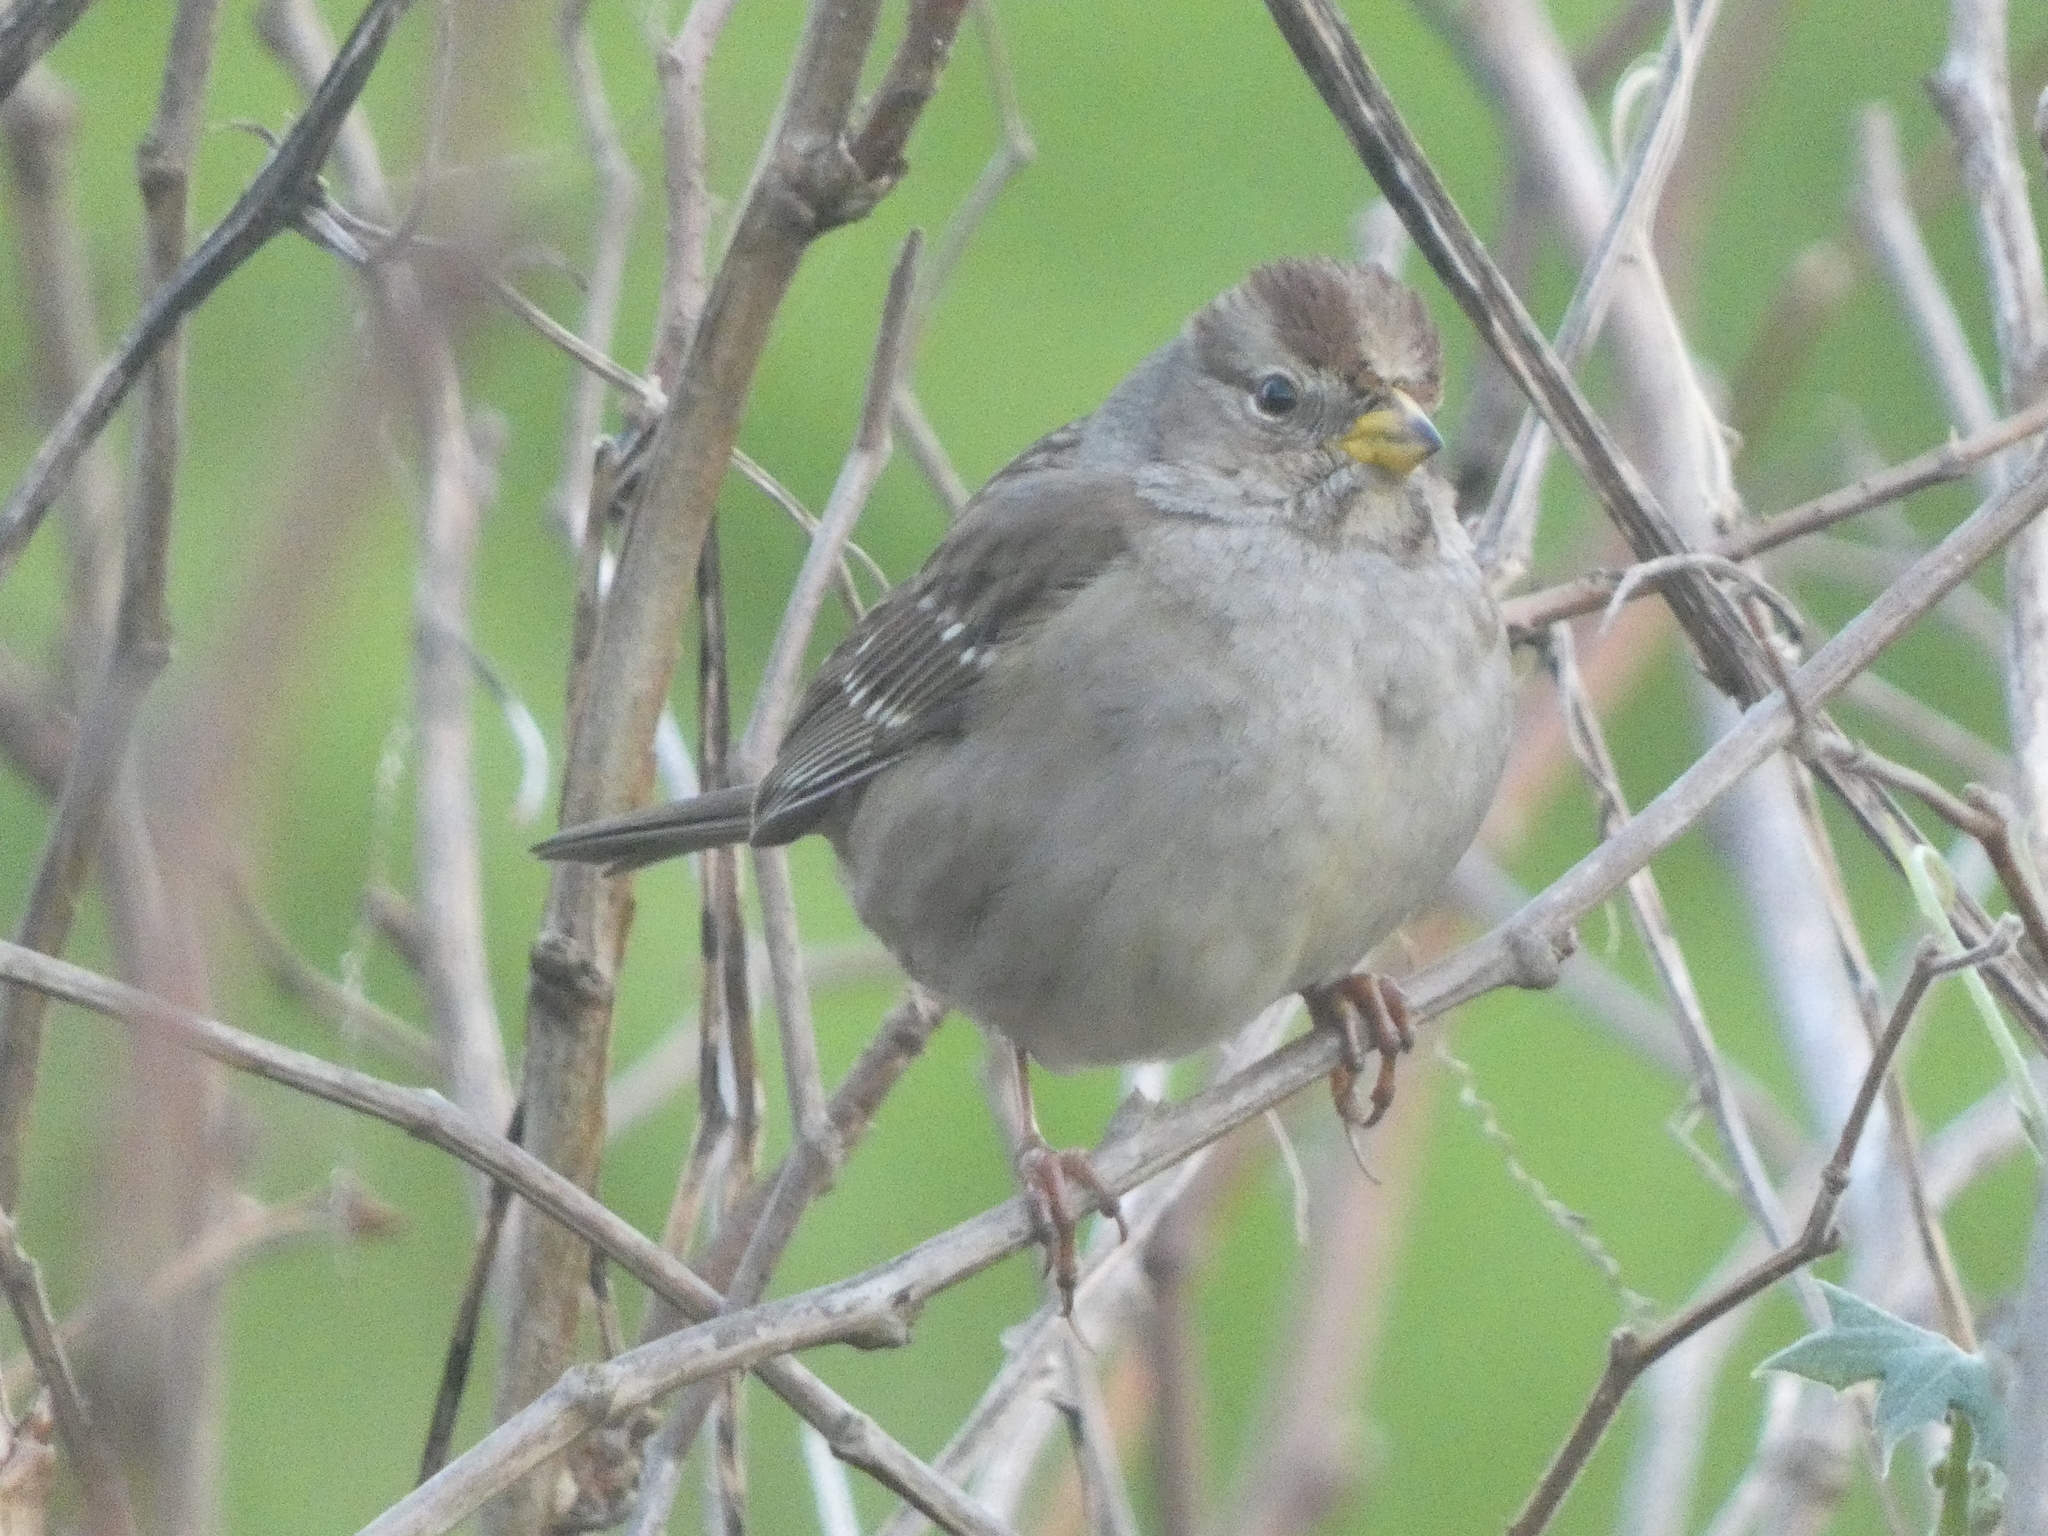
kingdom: Animalia
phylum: Chordata
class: Aves
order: Passeriformes
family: Passerellidae
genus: Zonotrichia
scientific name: Zonotrichia leucophrys
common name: White-crowned sparrow
